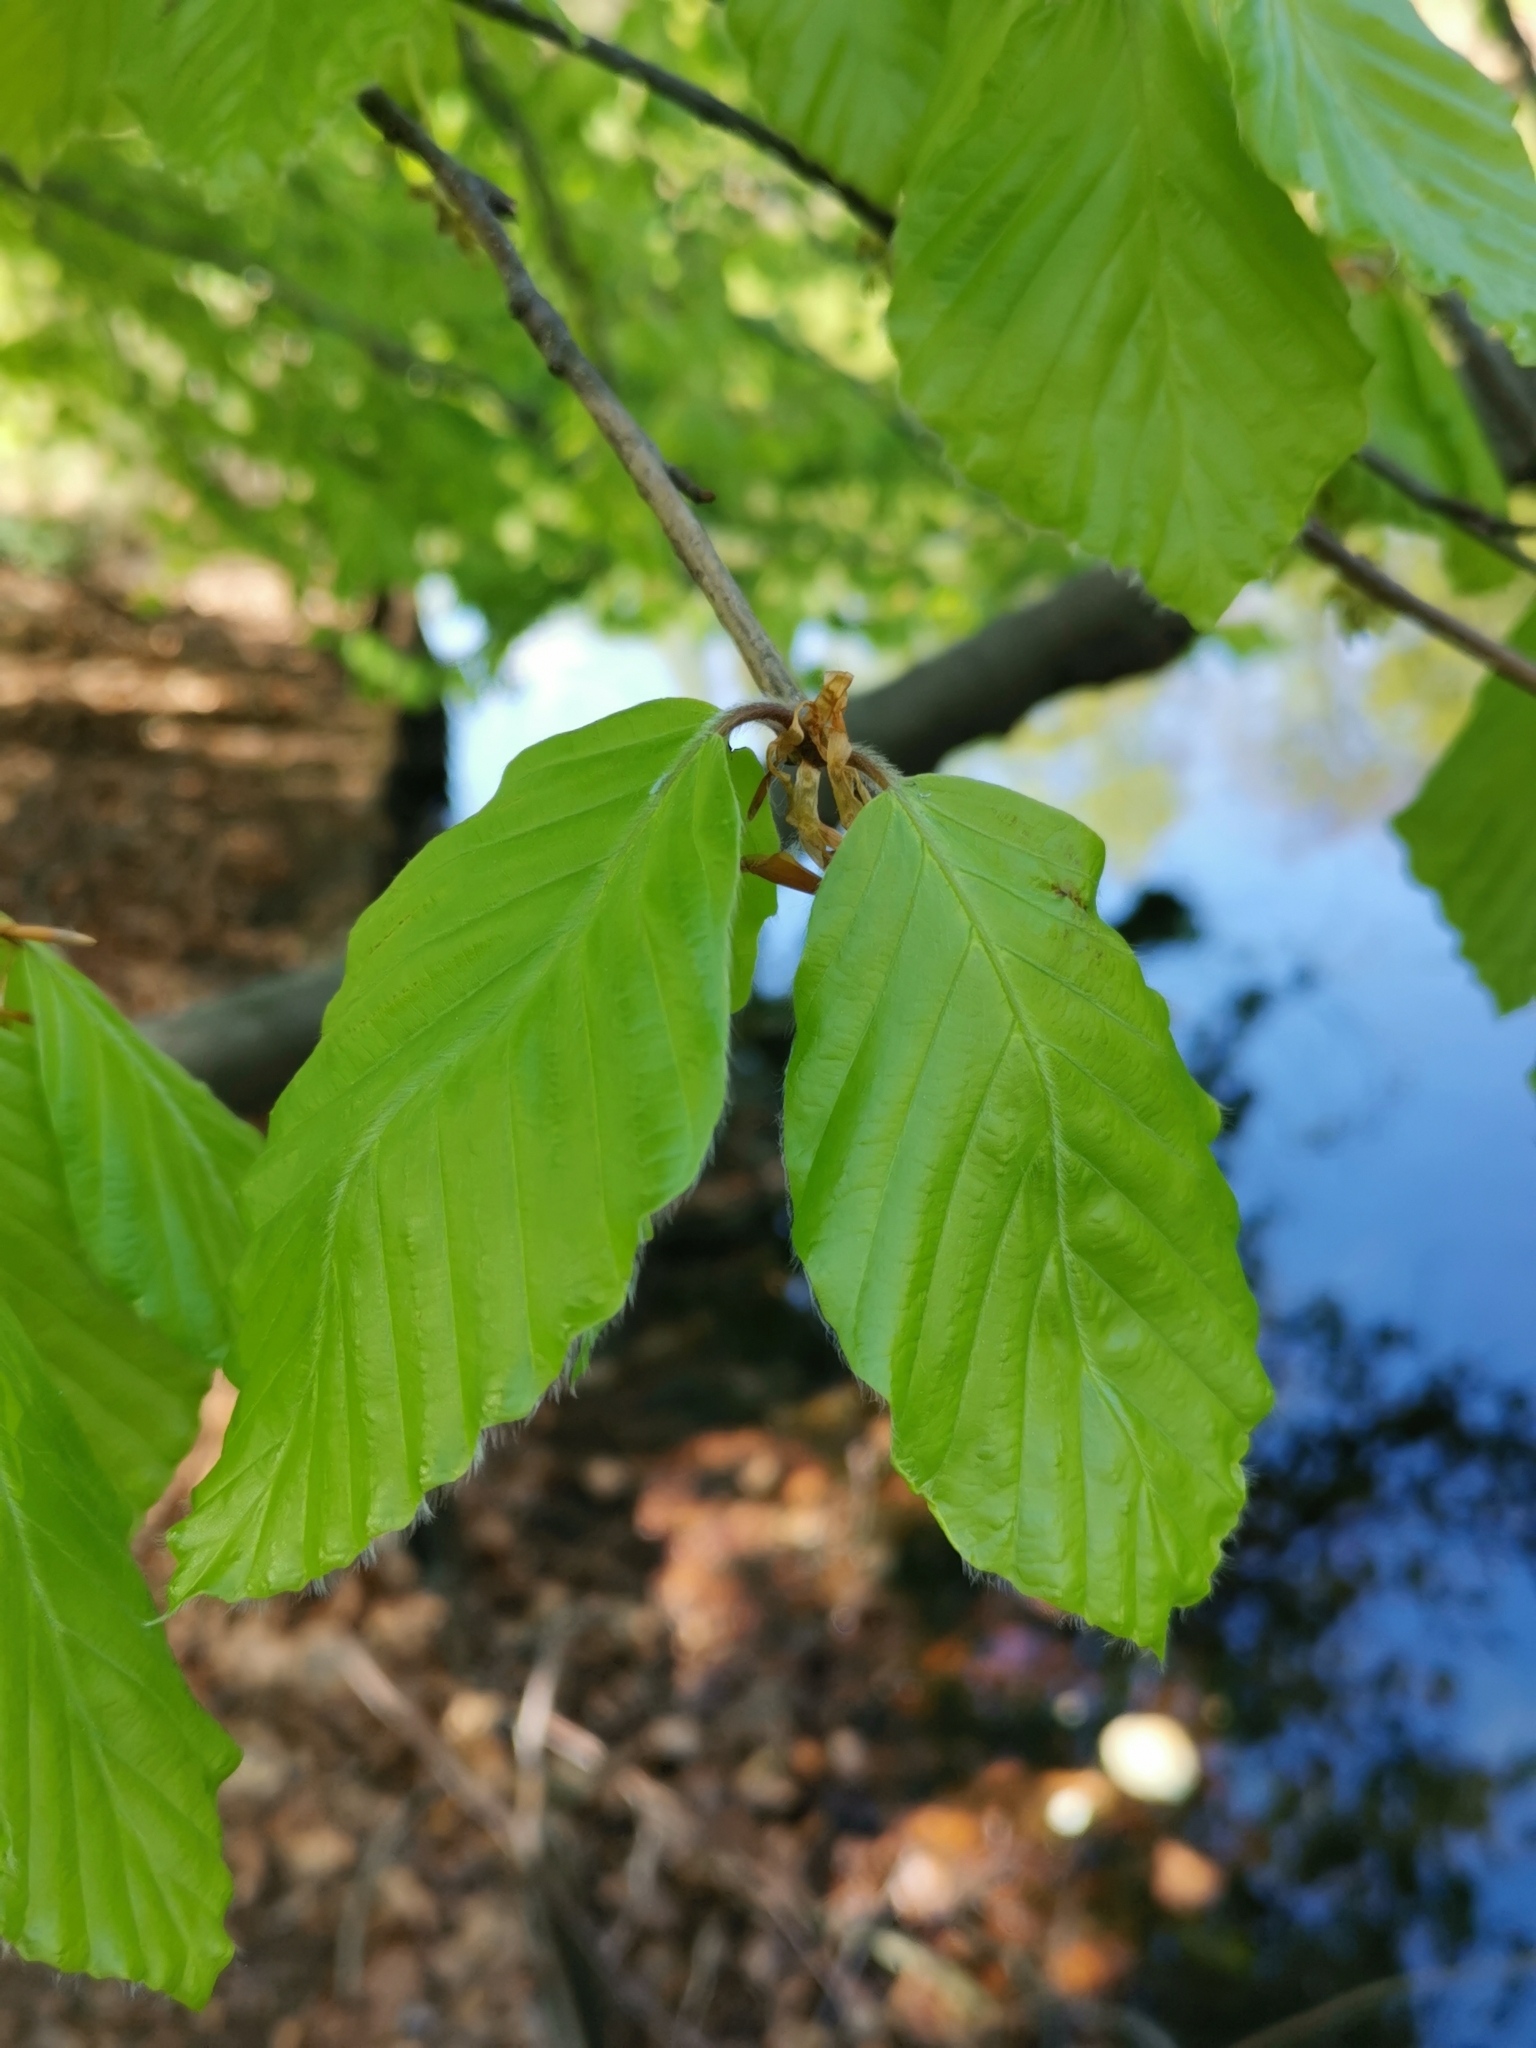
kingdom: Plantae
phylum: Tracheophyta
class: Magnoliopsida
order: Fagales
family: Fagaceae
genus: Fagus
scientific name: Fagus sylvatica
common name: Beech
